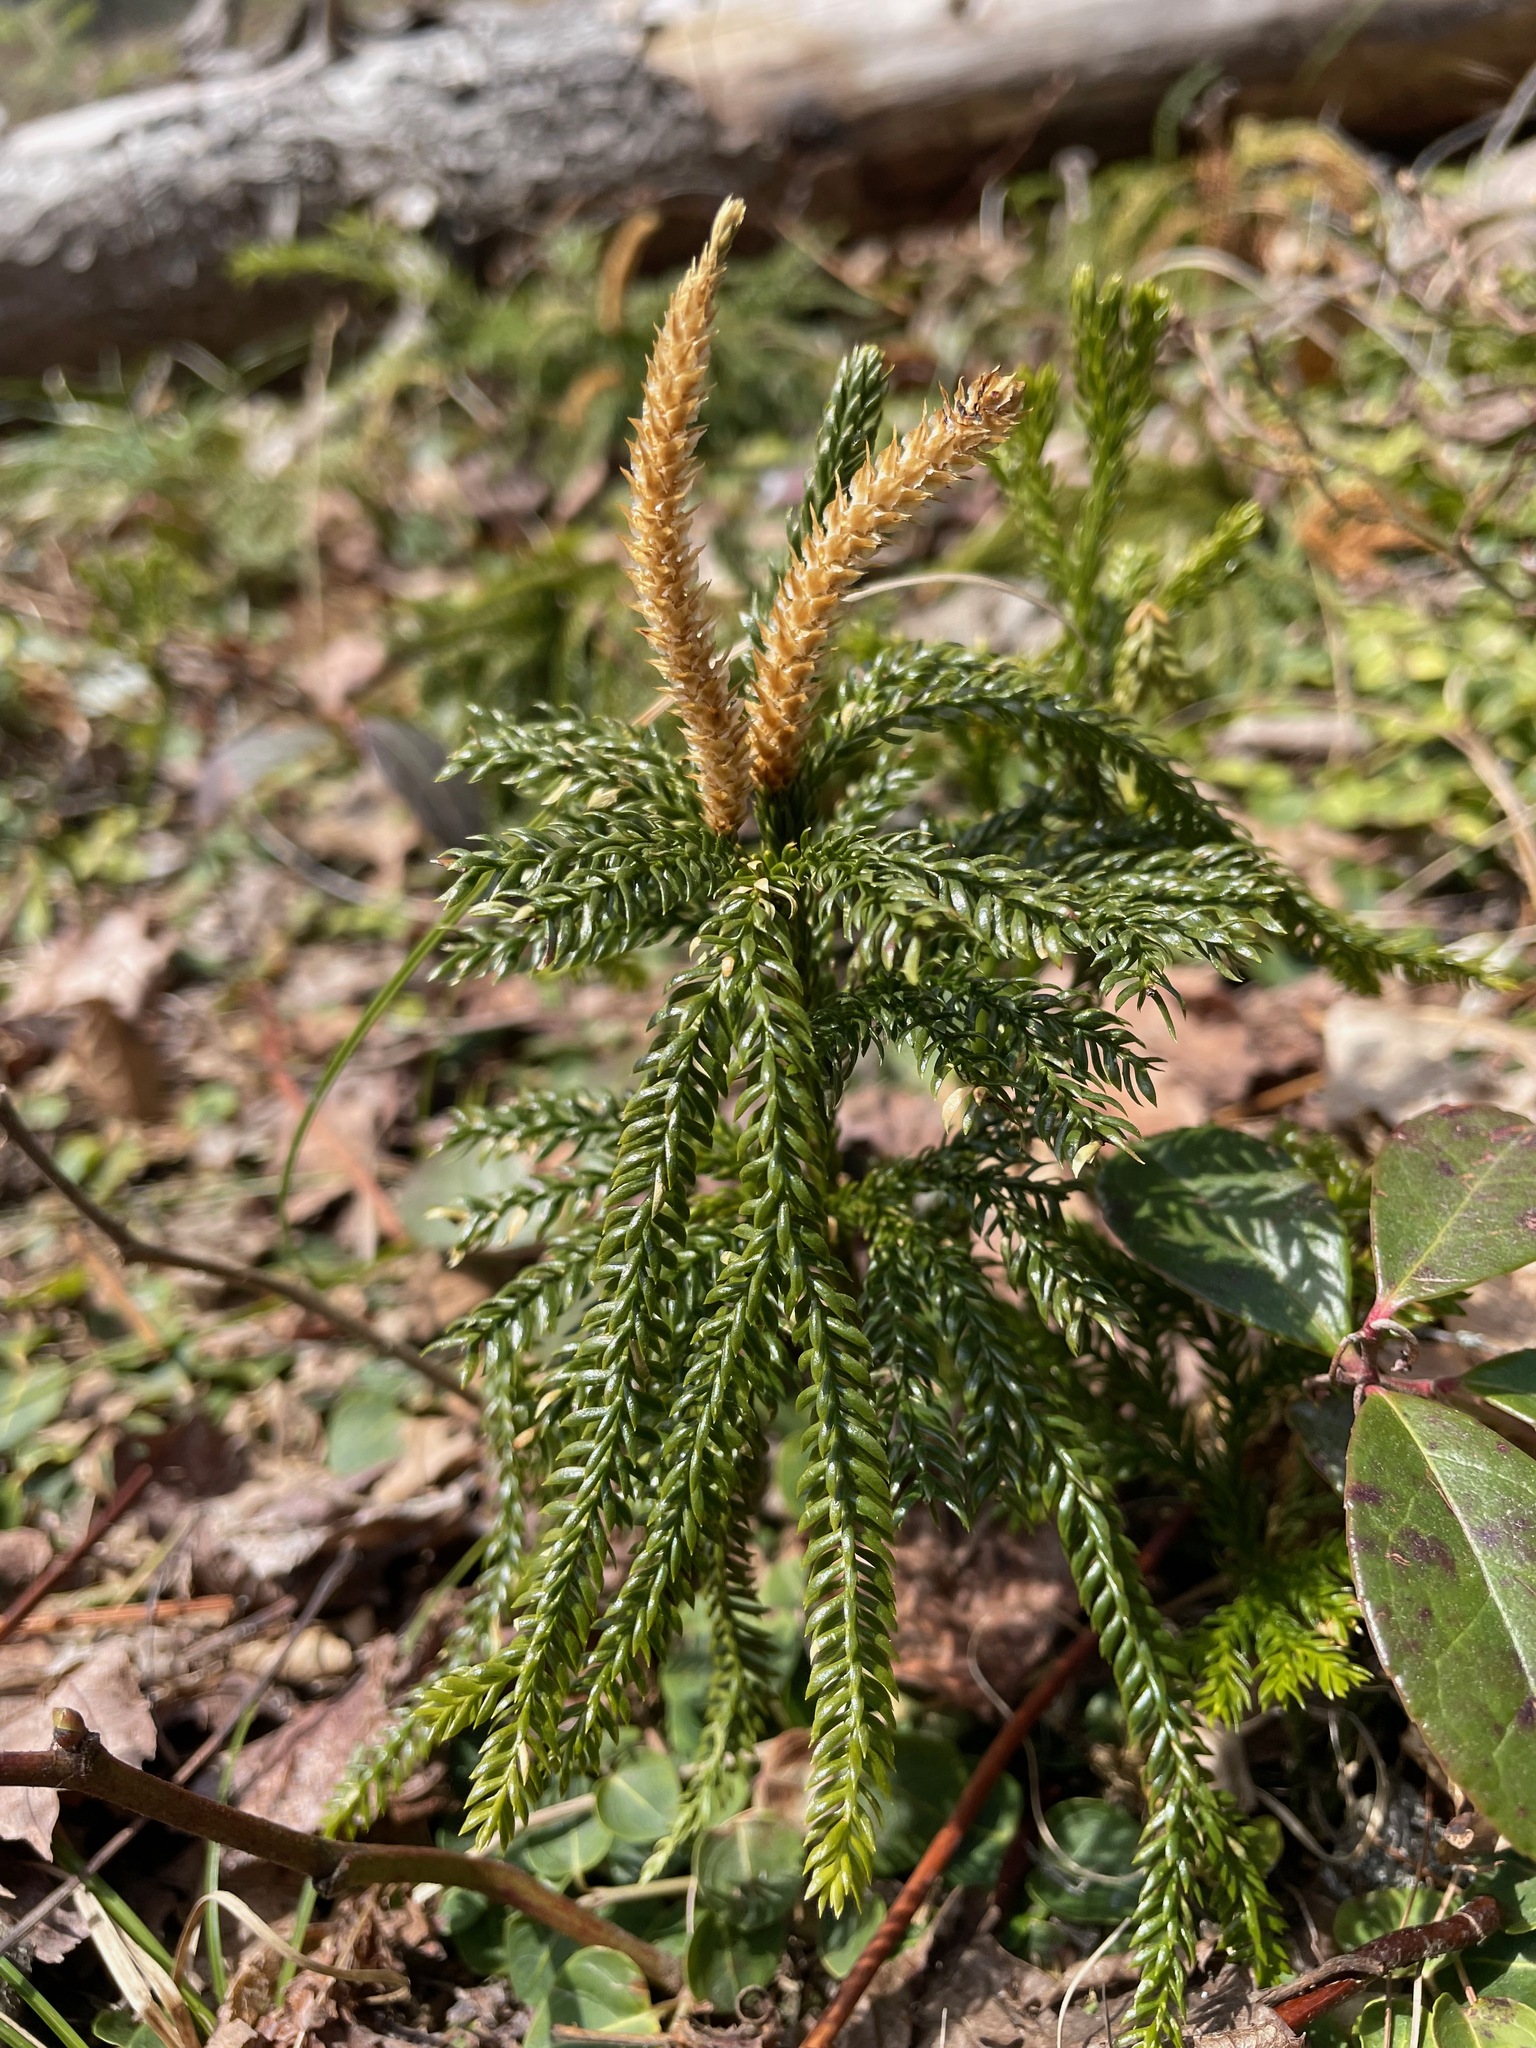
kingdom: Plantae
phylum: Tracheophyta
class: Lycopodiopsida
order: Lycopodiales
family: Lycopodiaceae
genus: Dendrolycopodium
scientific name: Dendrolycopodium obscurum
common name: Common ground-pine
